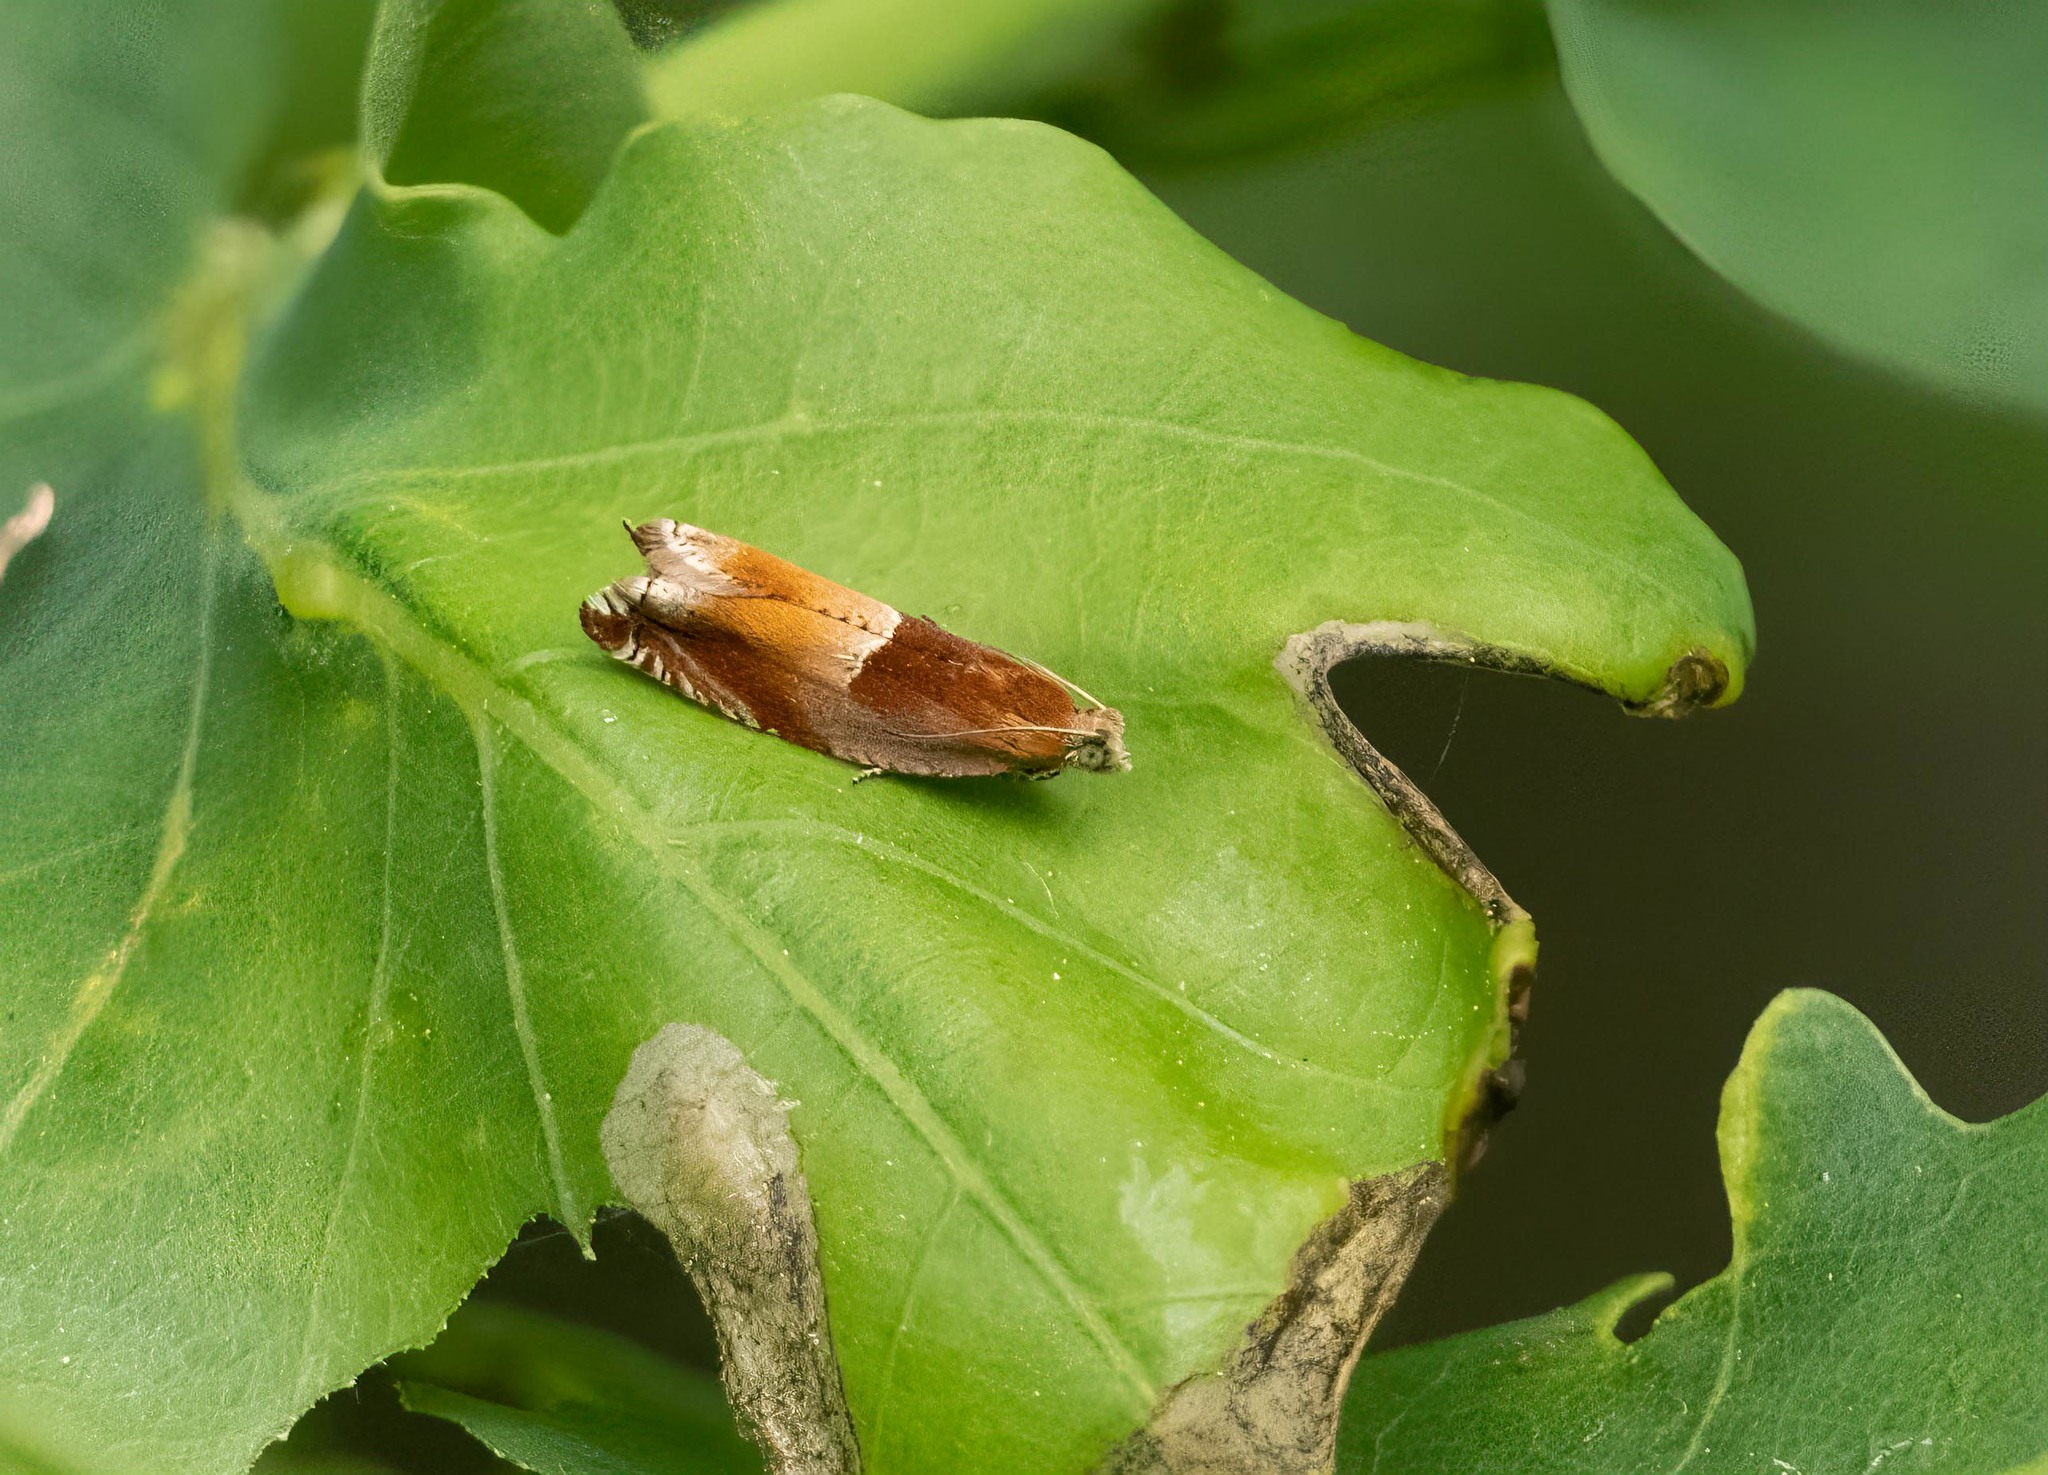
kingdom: Animalia
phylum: Arthropoda
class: Insecta
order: Lepidoptera
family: Tortricidae
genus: Ancylis
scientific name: Ancylis mitterbacheriana
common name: Red roller
